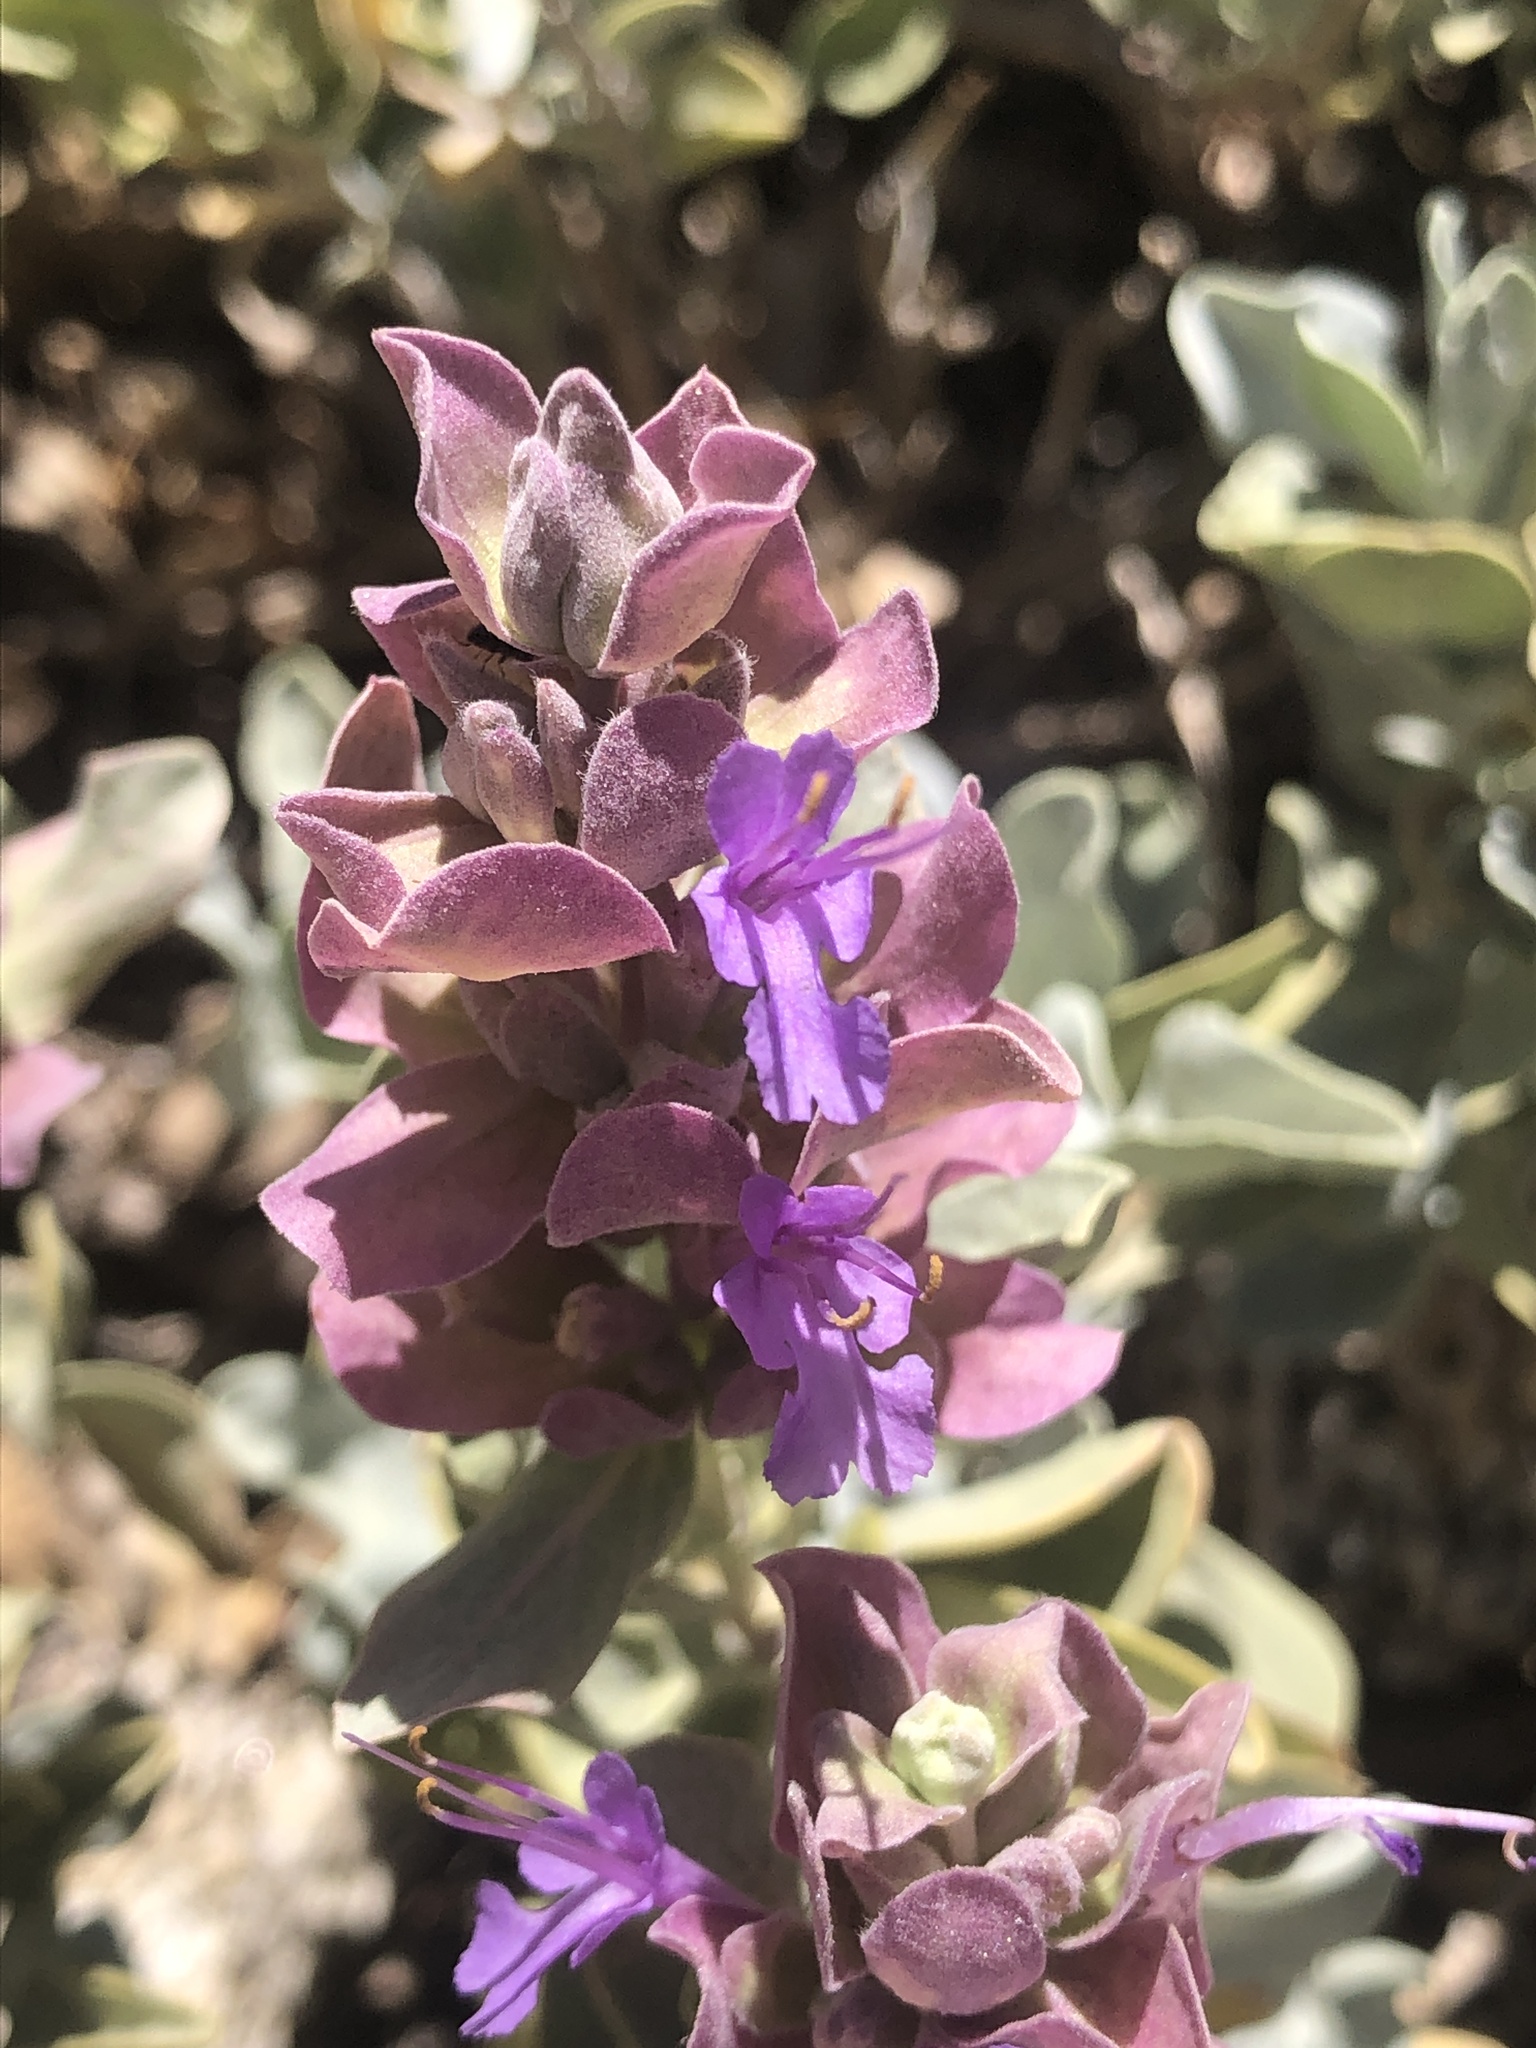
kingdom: Plantae
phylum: Tracheophyta
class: Magnoliopsida
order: Lamiales
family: Lamiaceae
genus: Salvia
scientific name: Salvia pachyphylla
